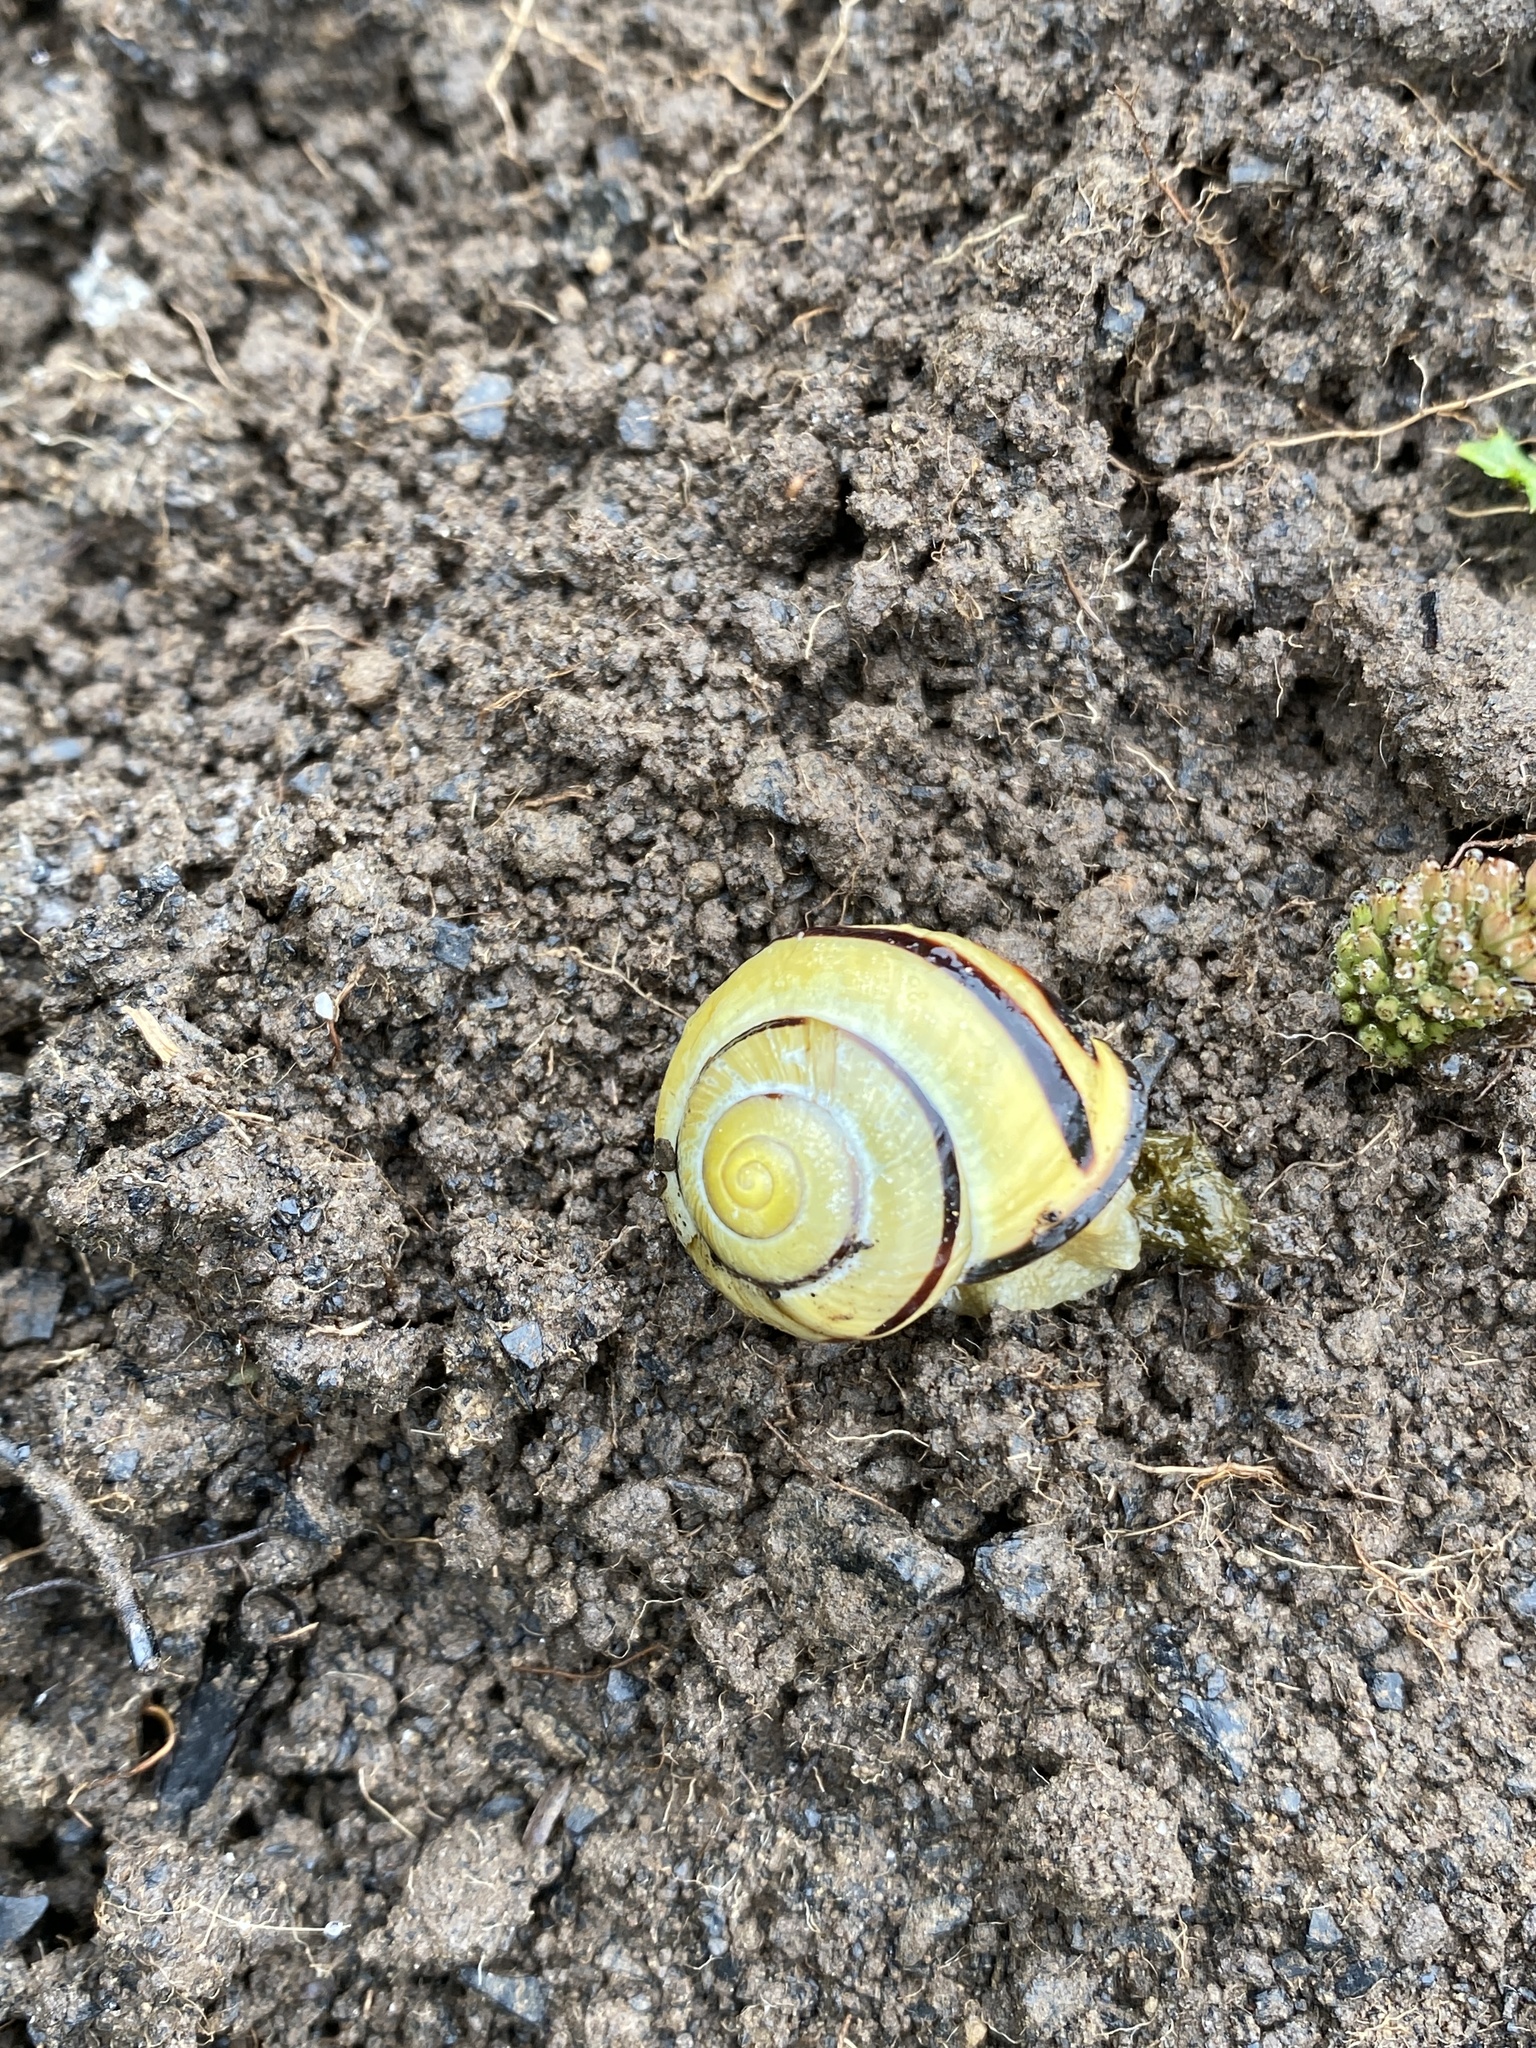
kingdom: Animalia
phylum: Mollusca
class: Gastropoda
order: Stylommatophora
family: Helicidae
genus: Cepaea
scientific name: Cepaea nemoralis
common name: Grovesnail
